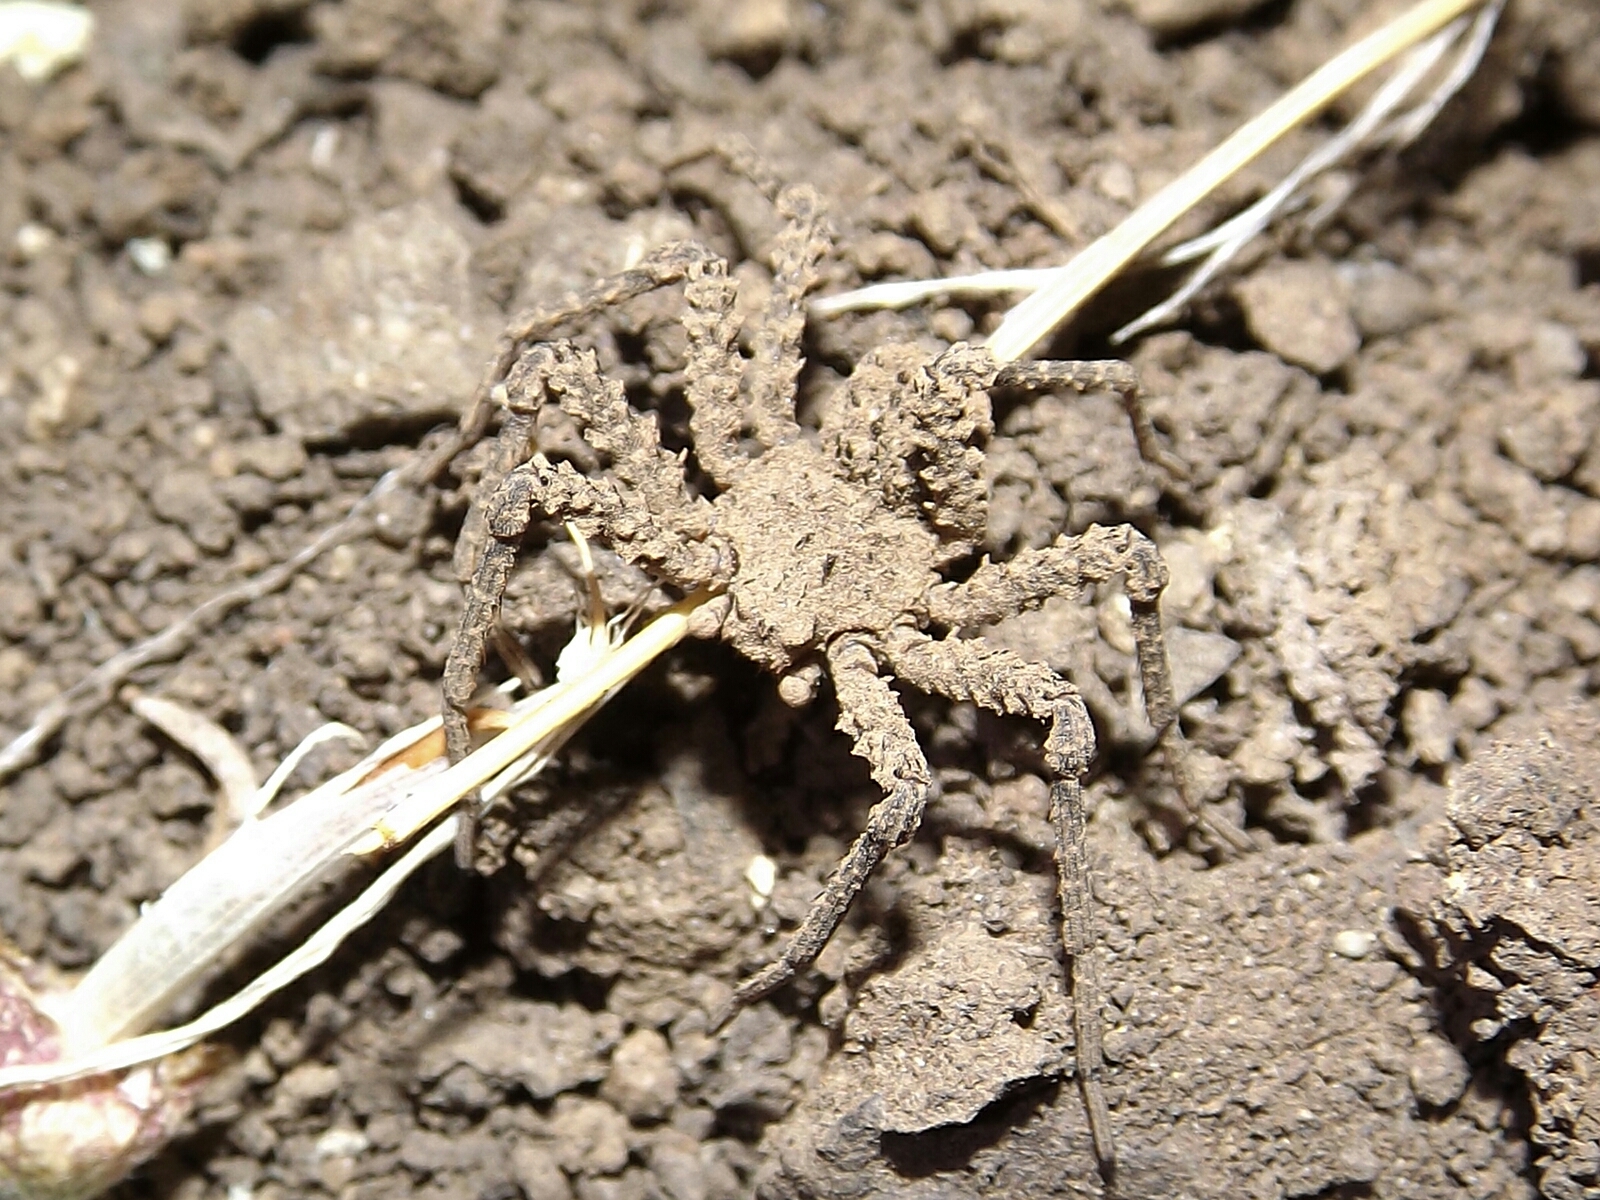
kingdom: Animalia
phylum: Arthropoda
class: Arachnida
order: Araneae
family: Sicariidae
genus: Sicarius
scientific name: Sicarius fumosus
